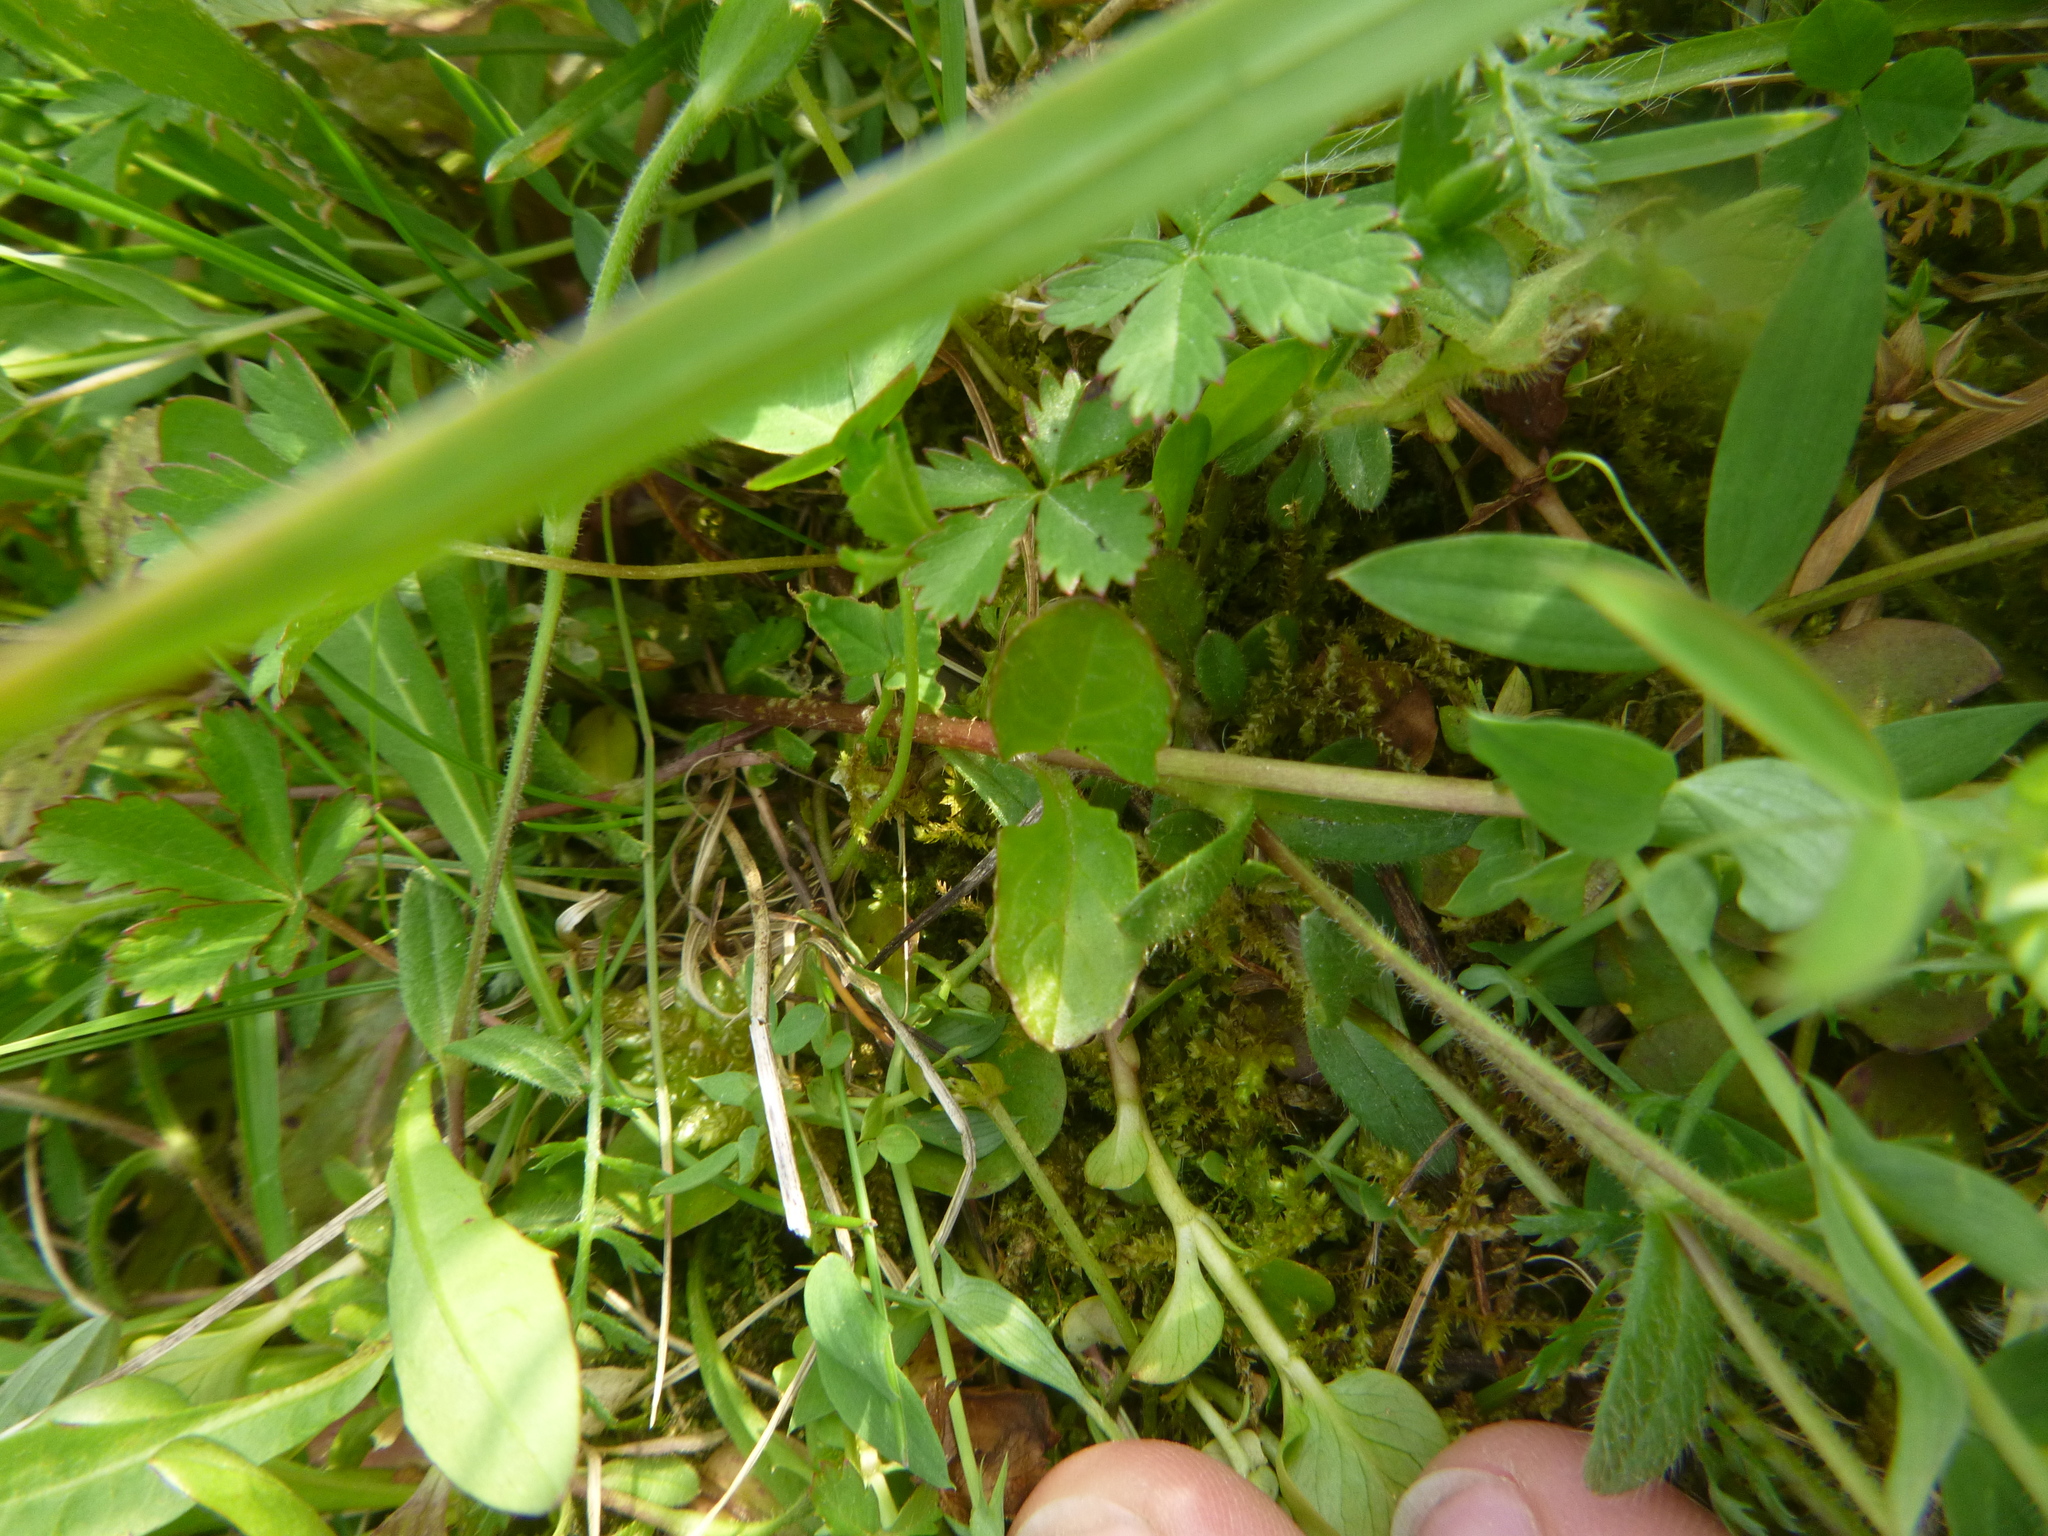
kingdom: Plantae
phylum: Tracheophyta
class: Magnoliopsida
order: Lamiales
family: Lamiaceae
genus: Ajuga
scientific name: Ajuga reptans
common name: Bugle
